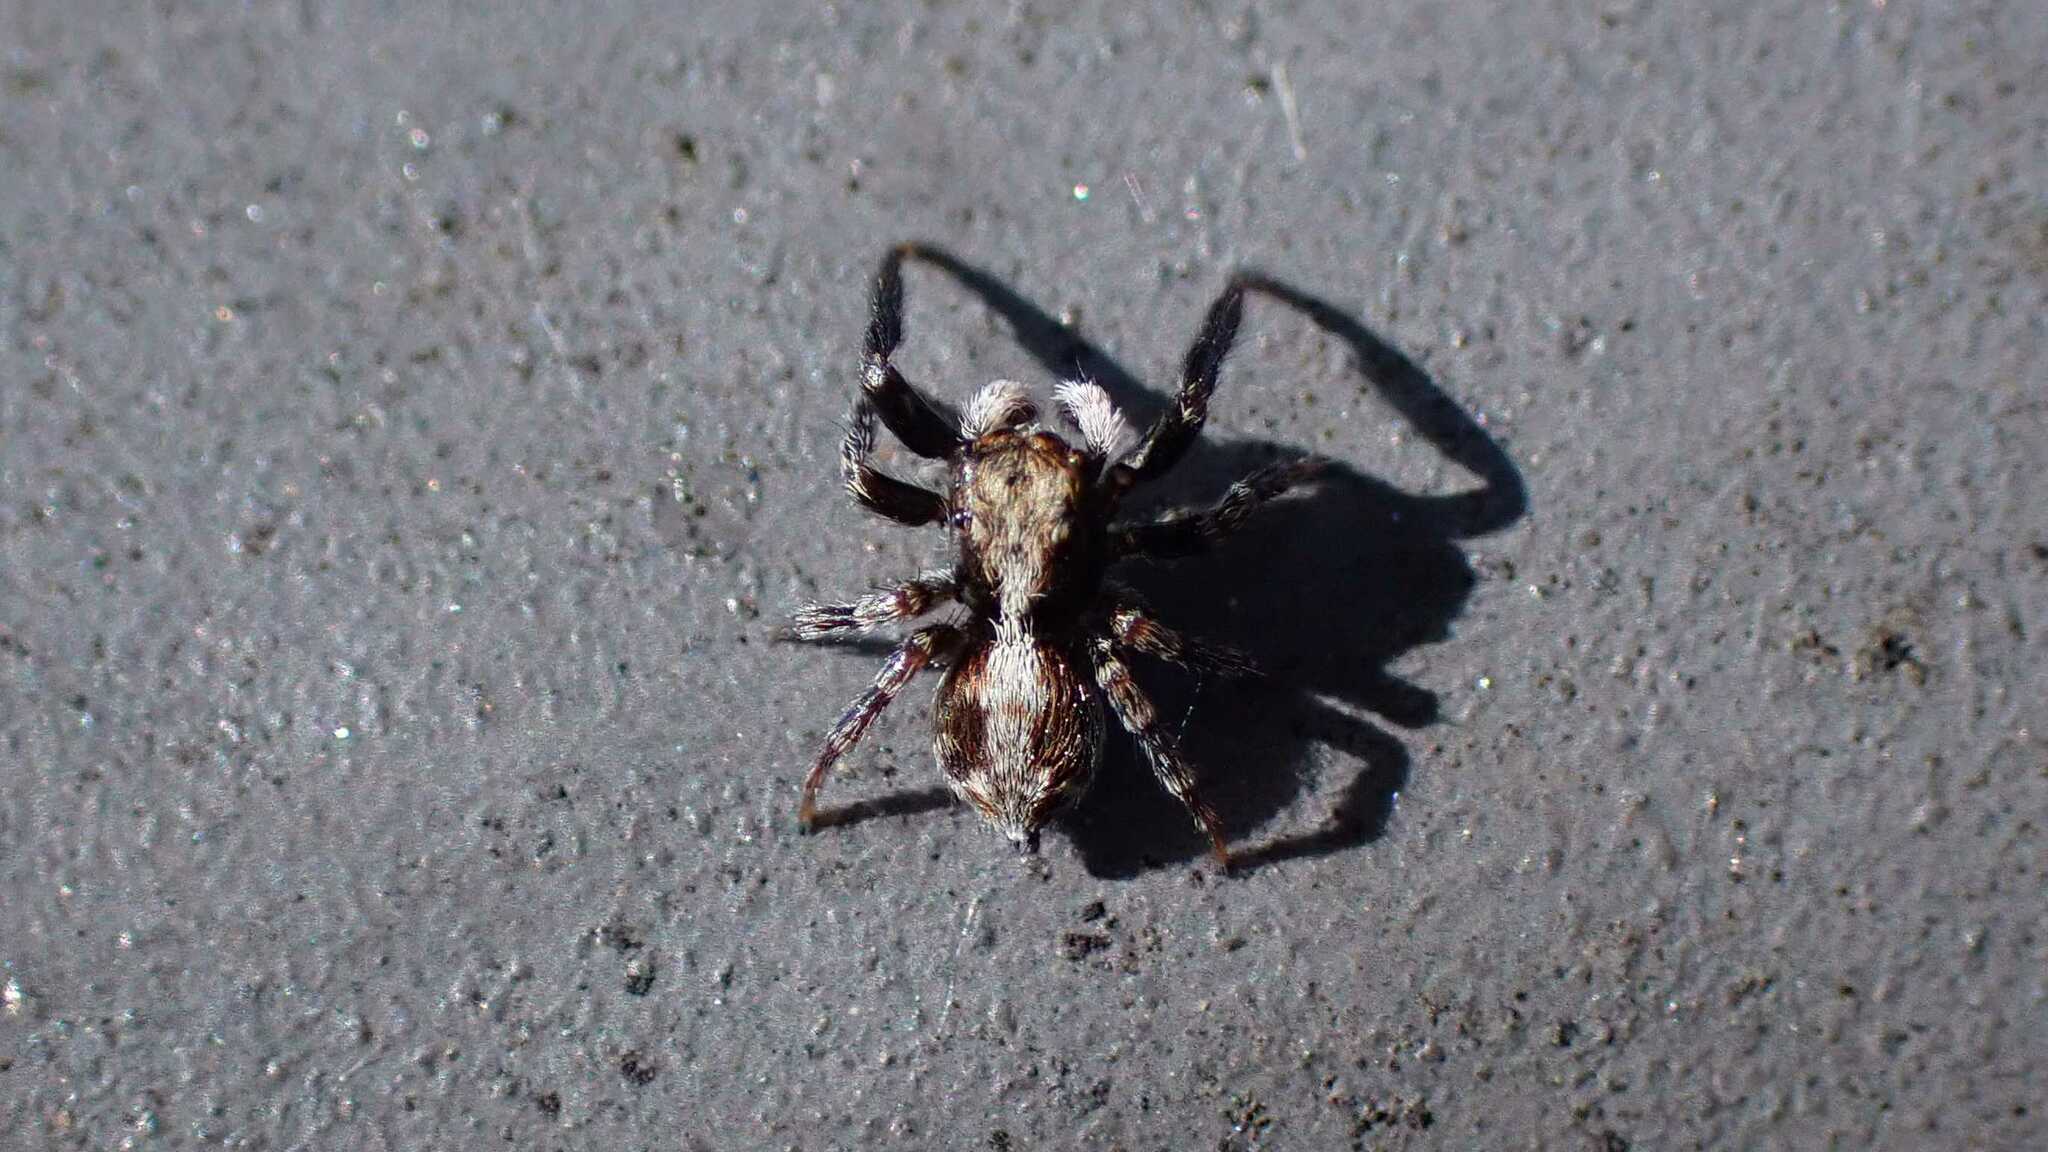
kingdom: Animalia
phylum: Arthropoda
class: Arachnida
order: Araneae
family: Salticidae
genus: Pseudeuophrys
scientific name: Pseudeuophrys lanigera
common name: Jumping spider
